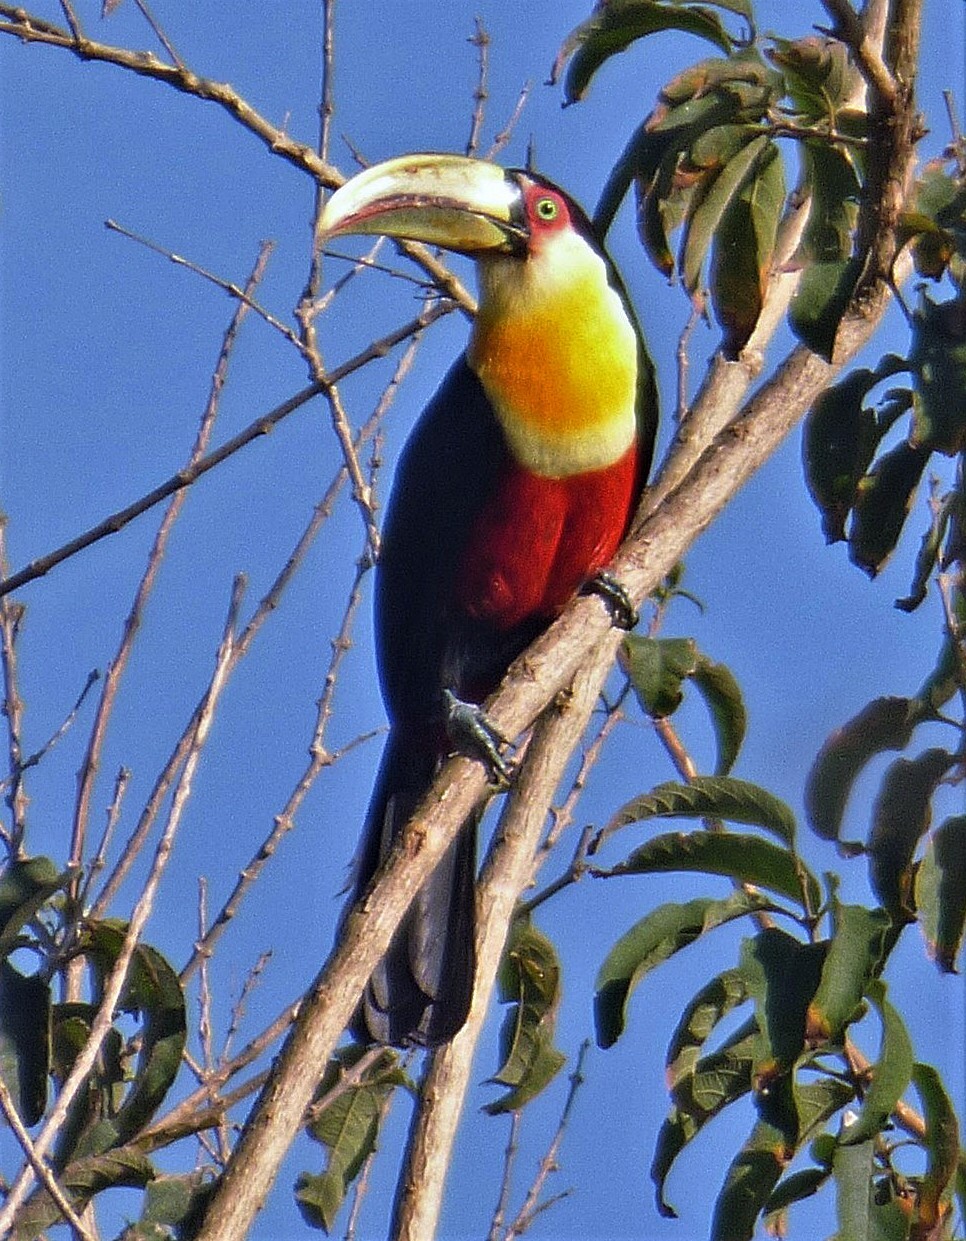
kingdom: Animalia
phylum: Chordata
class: Aves
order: Piciformes
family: Ramphastidae
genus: Ramphastos
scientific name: Ramphastos dicolorus
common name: Green-billed toucan
